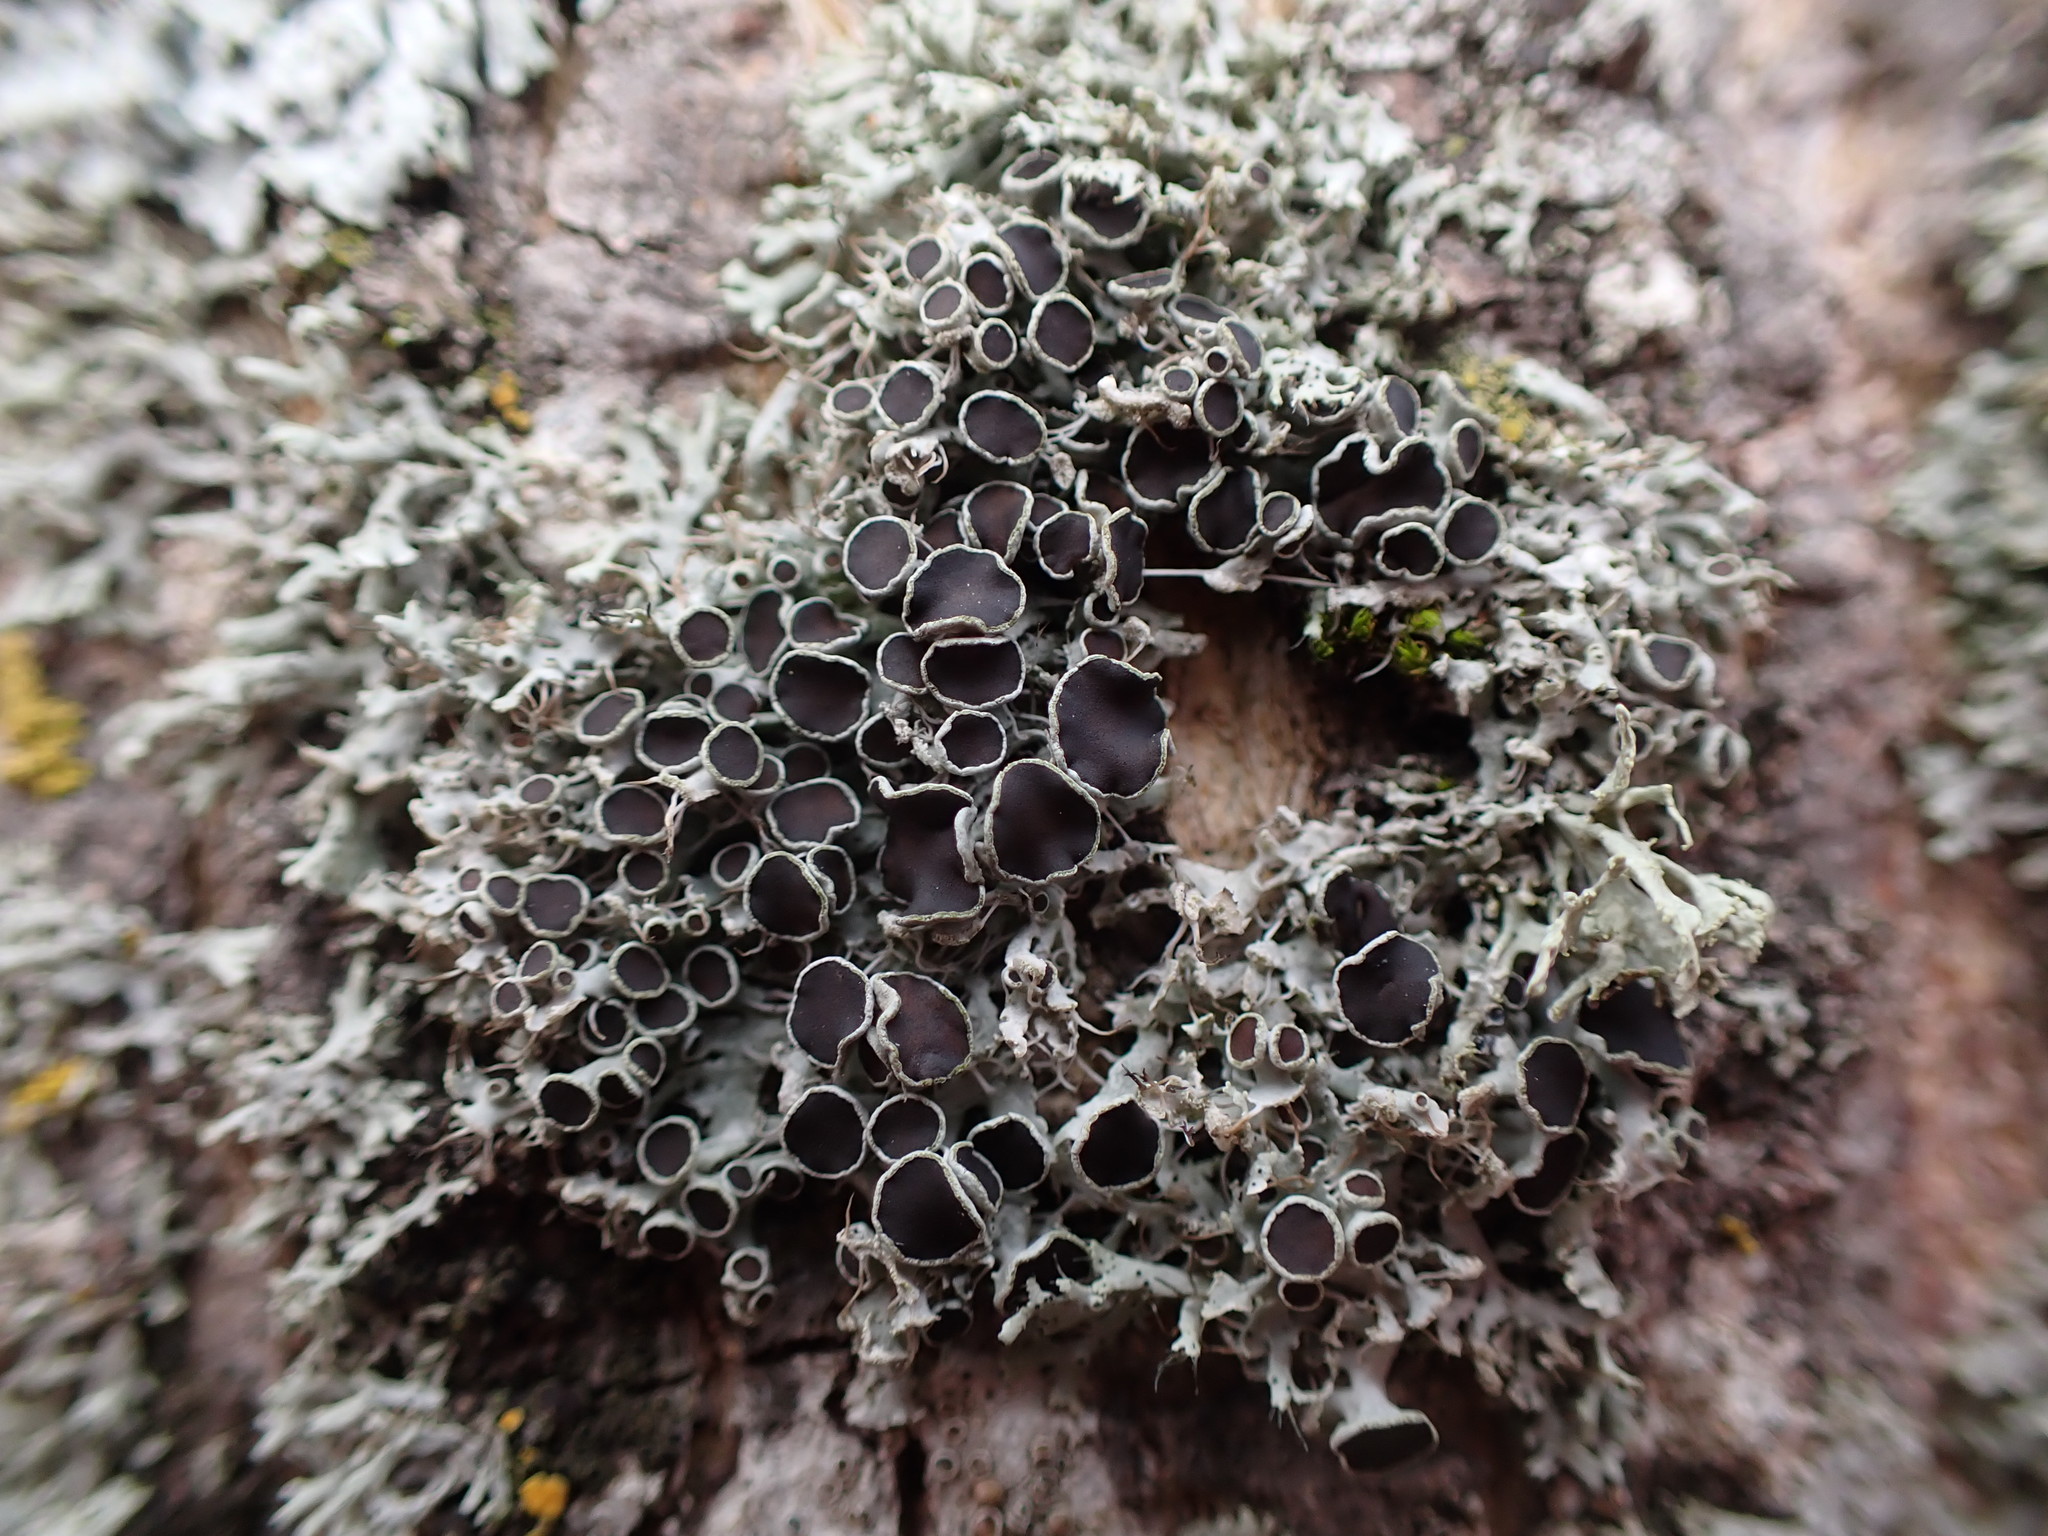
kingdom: Fungi
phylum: Ascomycota
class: Lecanoromycetes
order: Caliciales
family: Physciaceae
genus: Physcia
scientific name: Physcia adscendens
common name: Hooded rosette lichen
